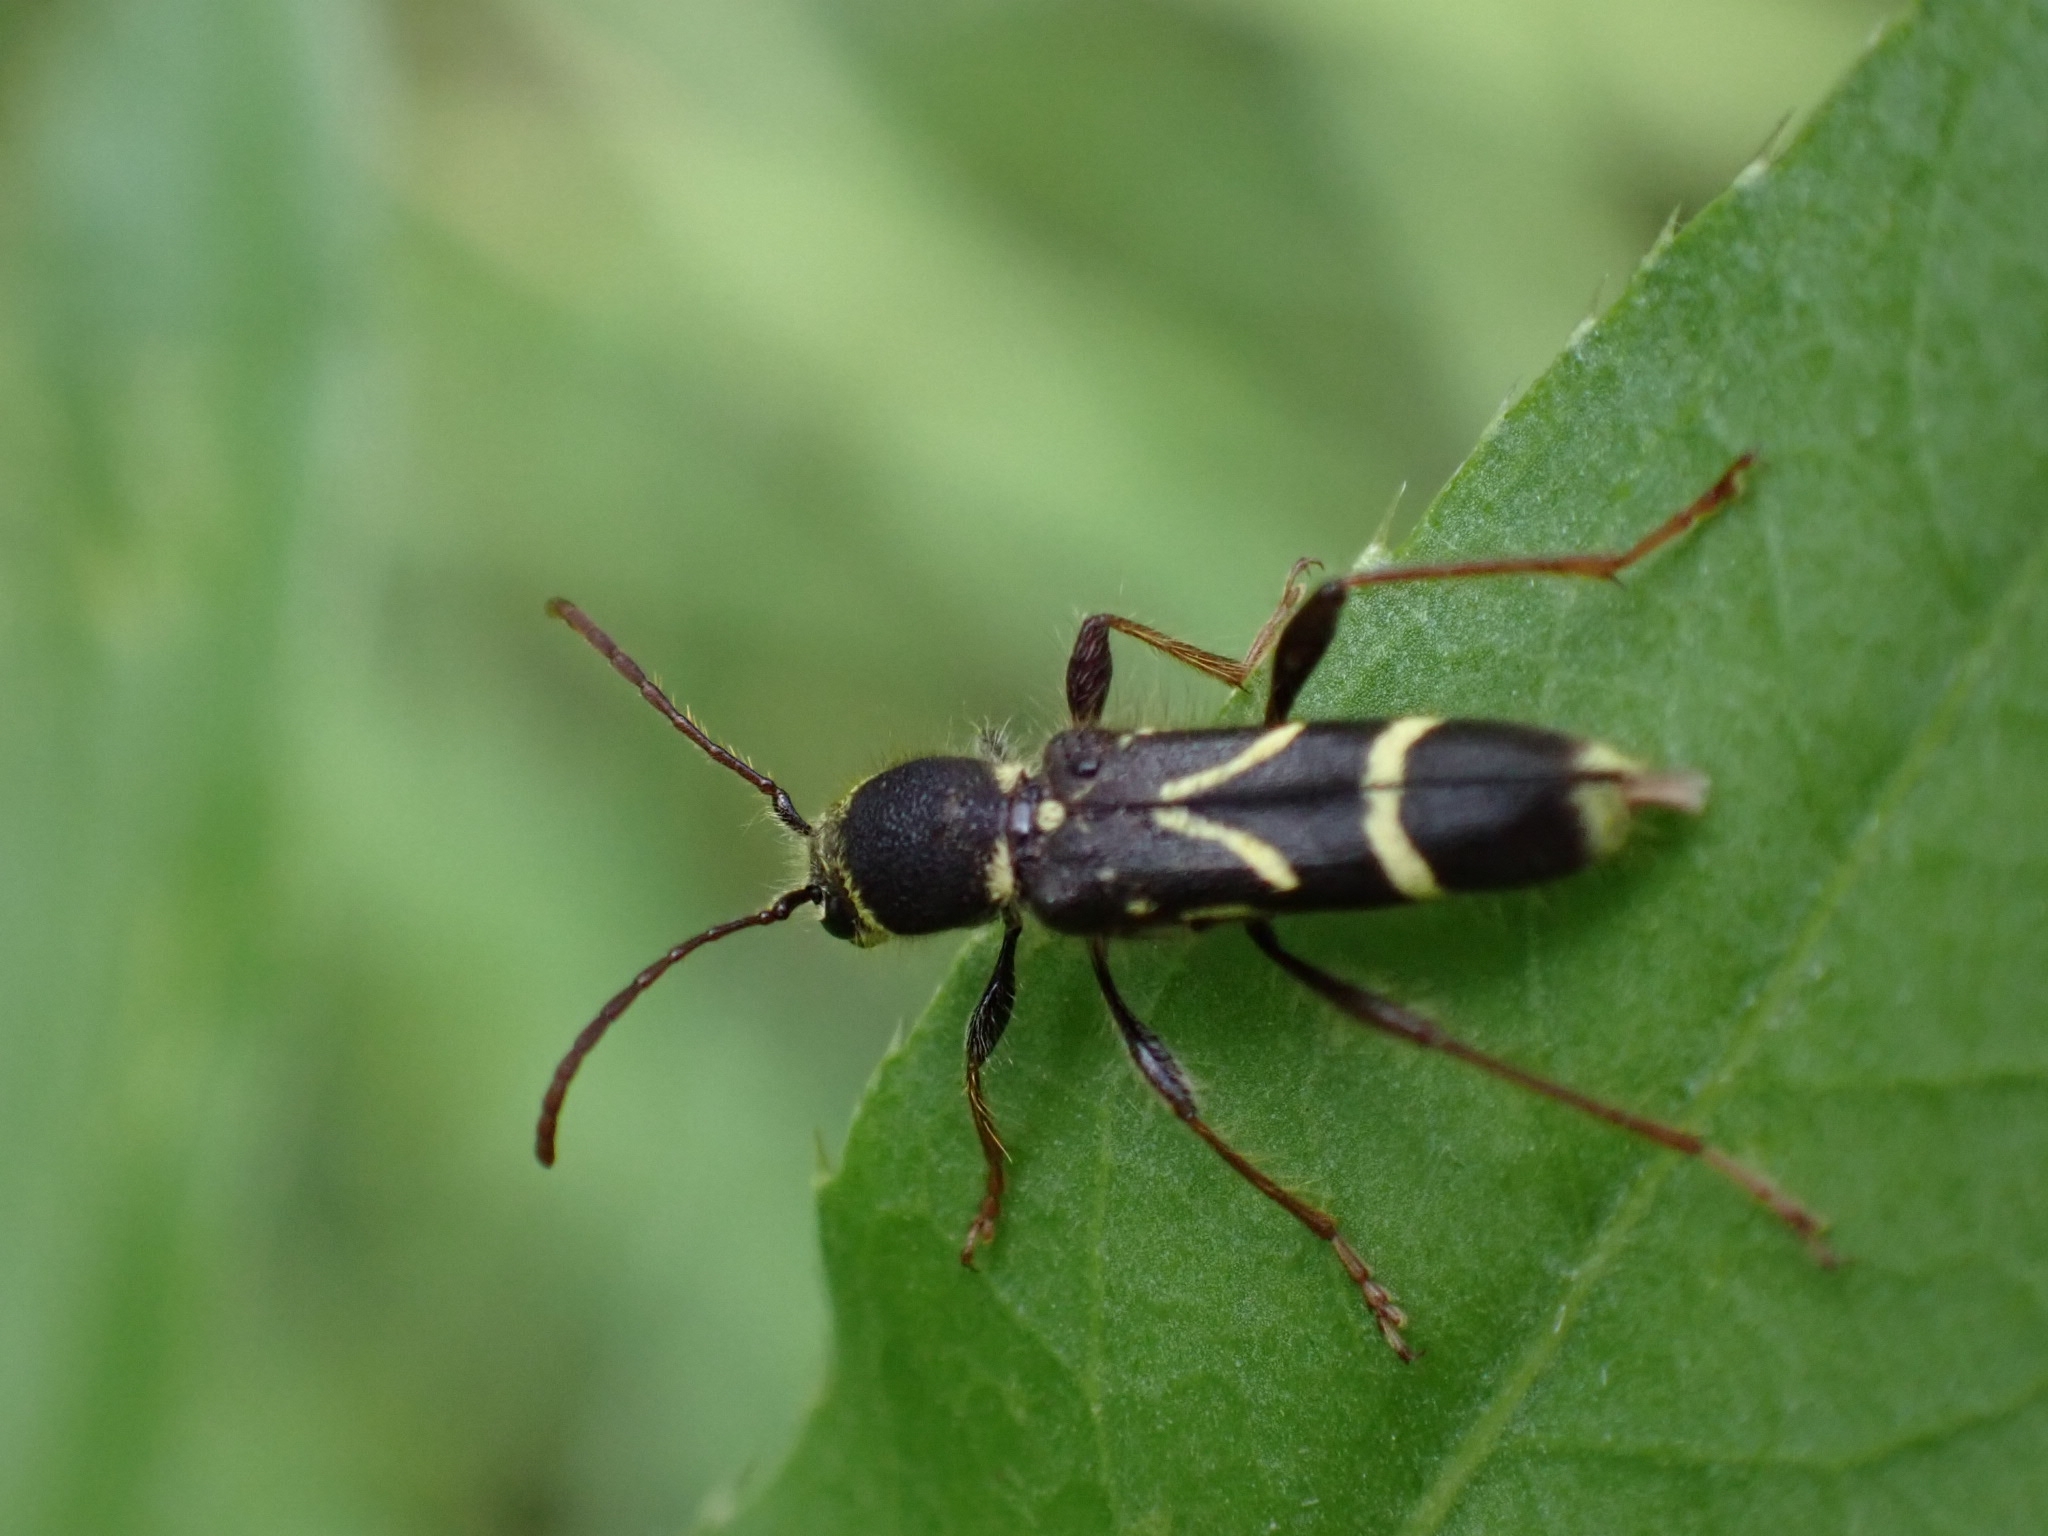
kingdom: Animalia
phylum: Arthropoda
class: Insecta
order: Coleoptera
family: Cerambycidae
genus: Cyrtoclytus
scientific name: Cyrtoclytus capra
